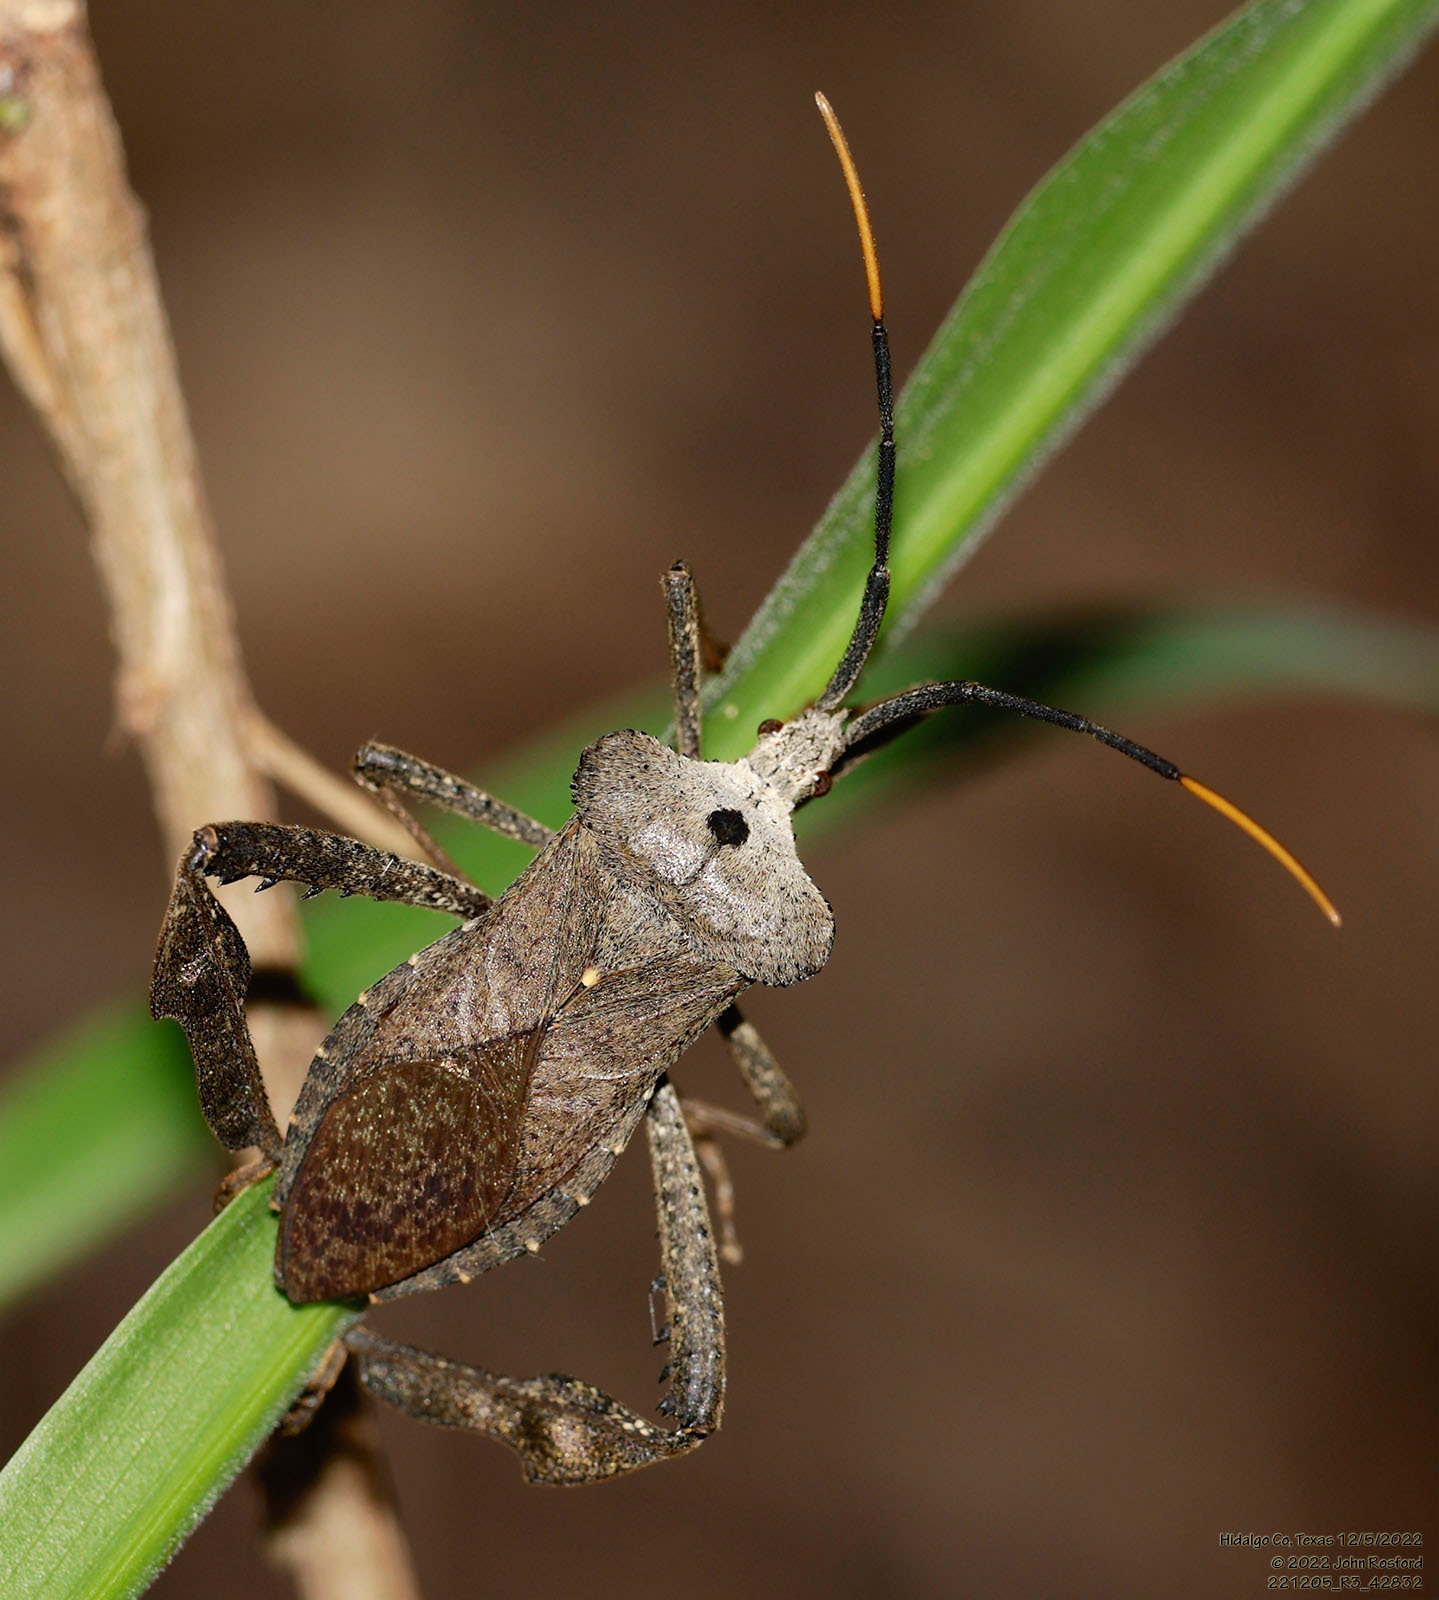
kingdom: Animalia
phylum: Arthropoda
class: Insecta
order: Hemiptera
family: Coreidae
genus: Acanthocephala
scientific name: Acanthocephala alata
